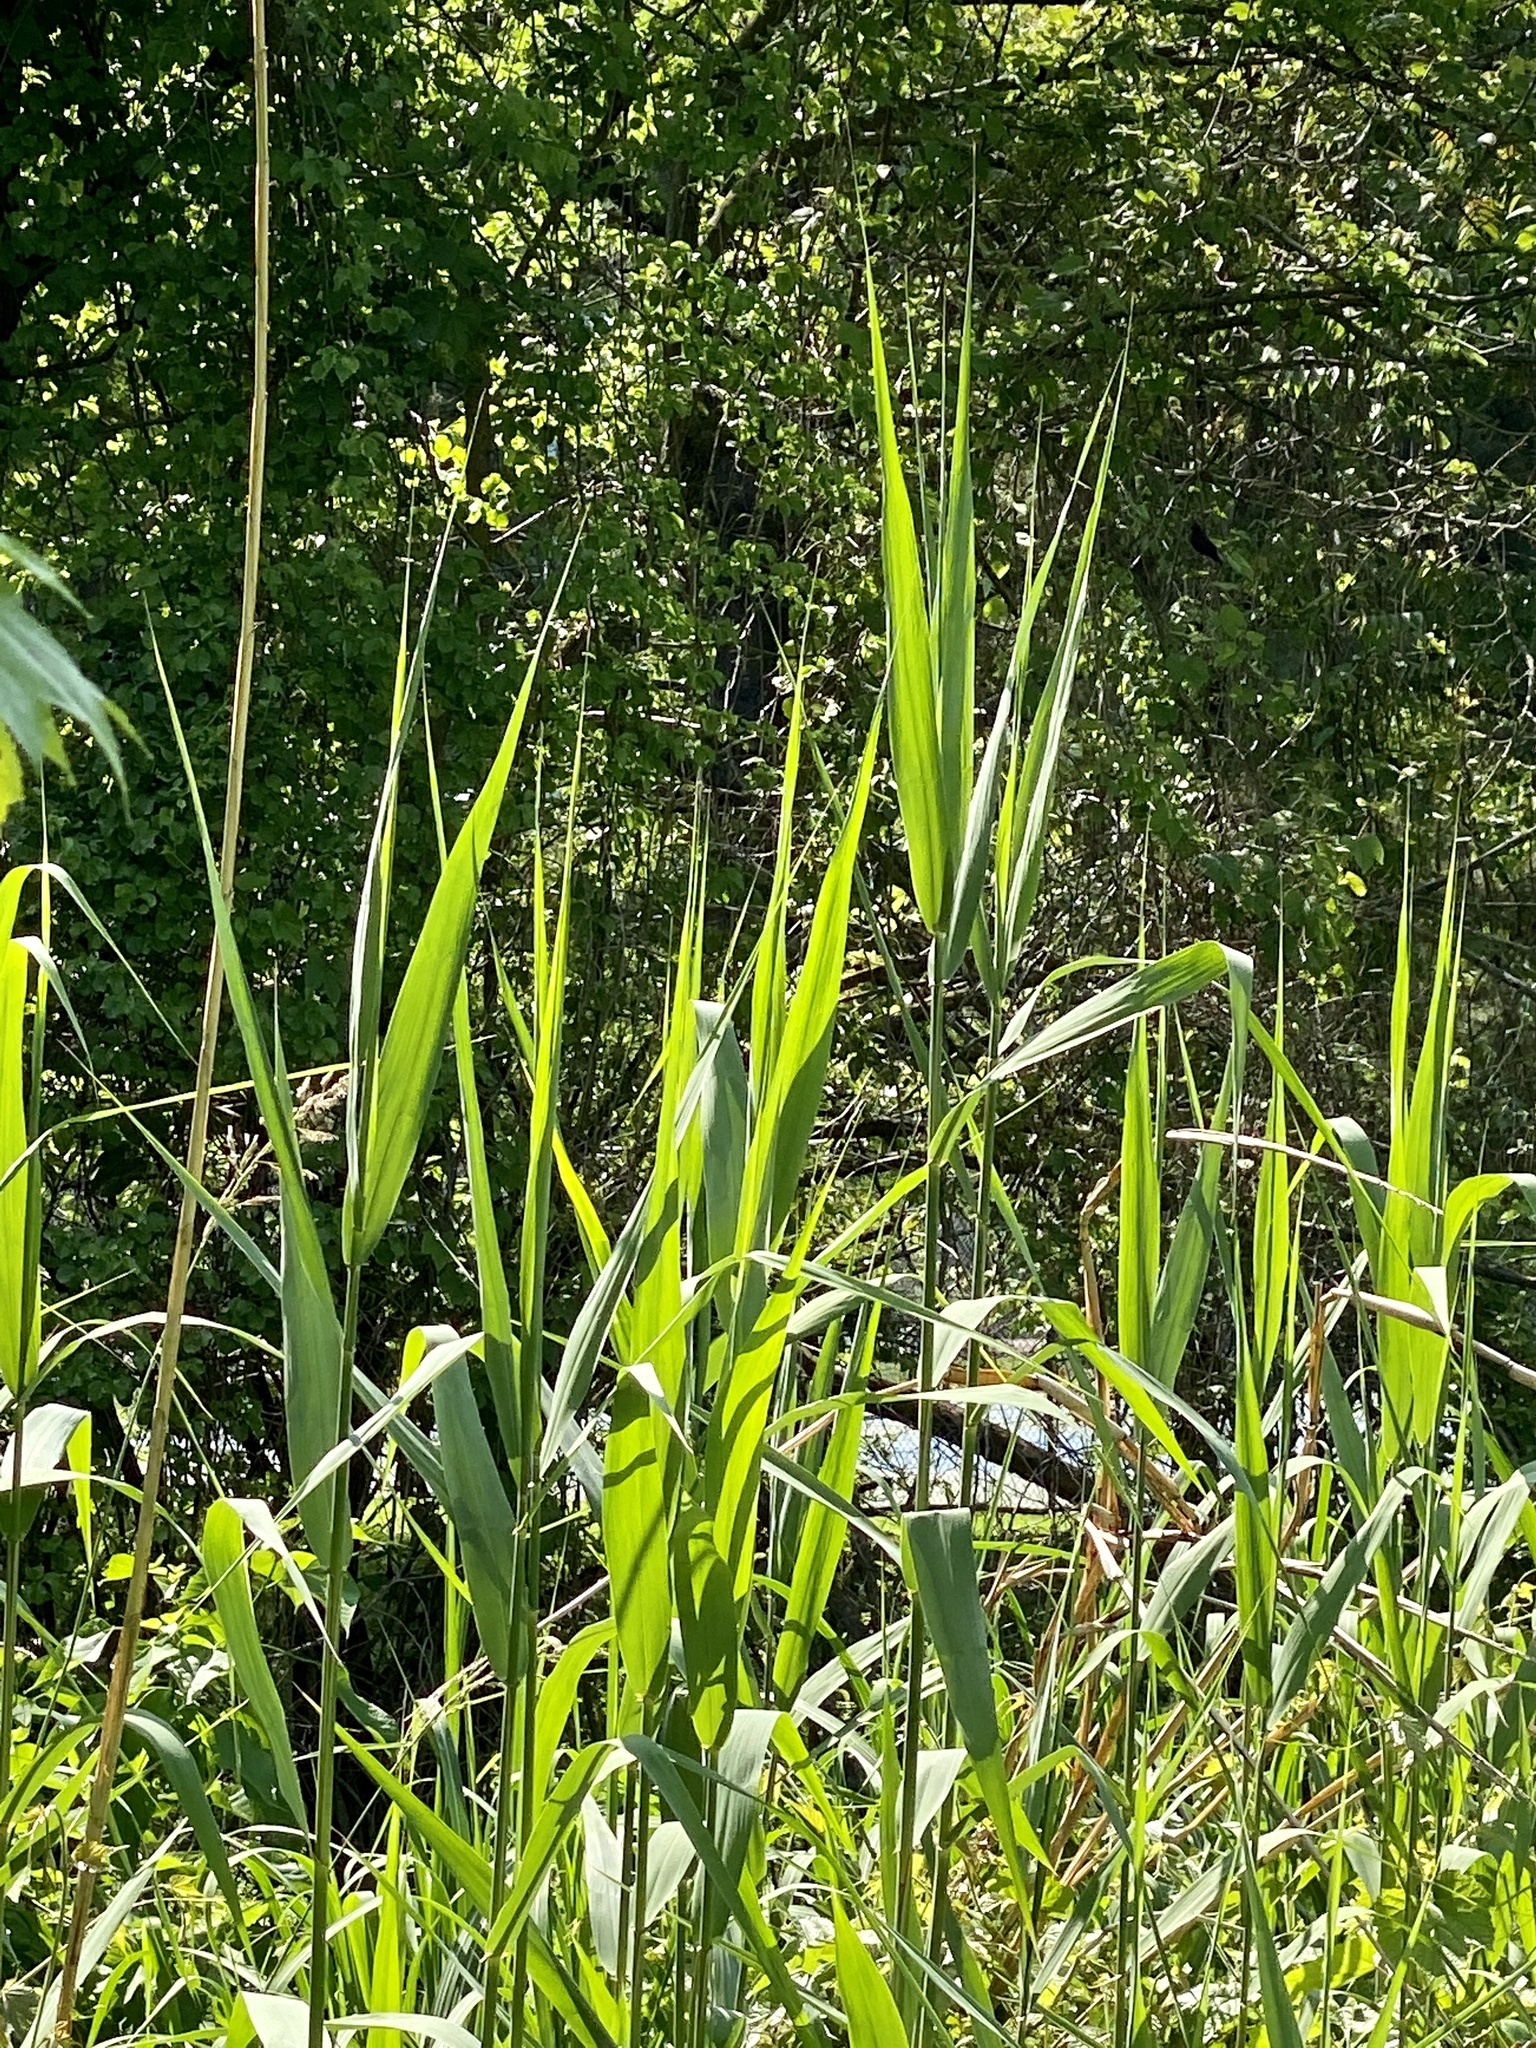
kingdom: Plantae
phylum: Tracheophyta
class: Liliopsida
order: Poales
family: Poaceae
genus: Phragmites
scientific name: Phragmites australis
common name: Common reed
